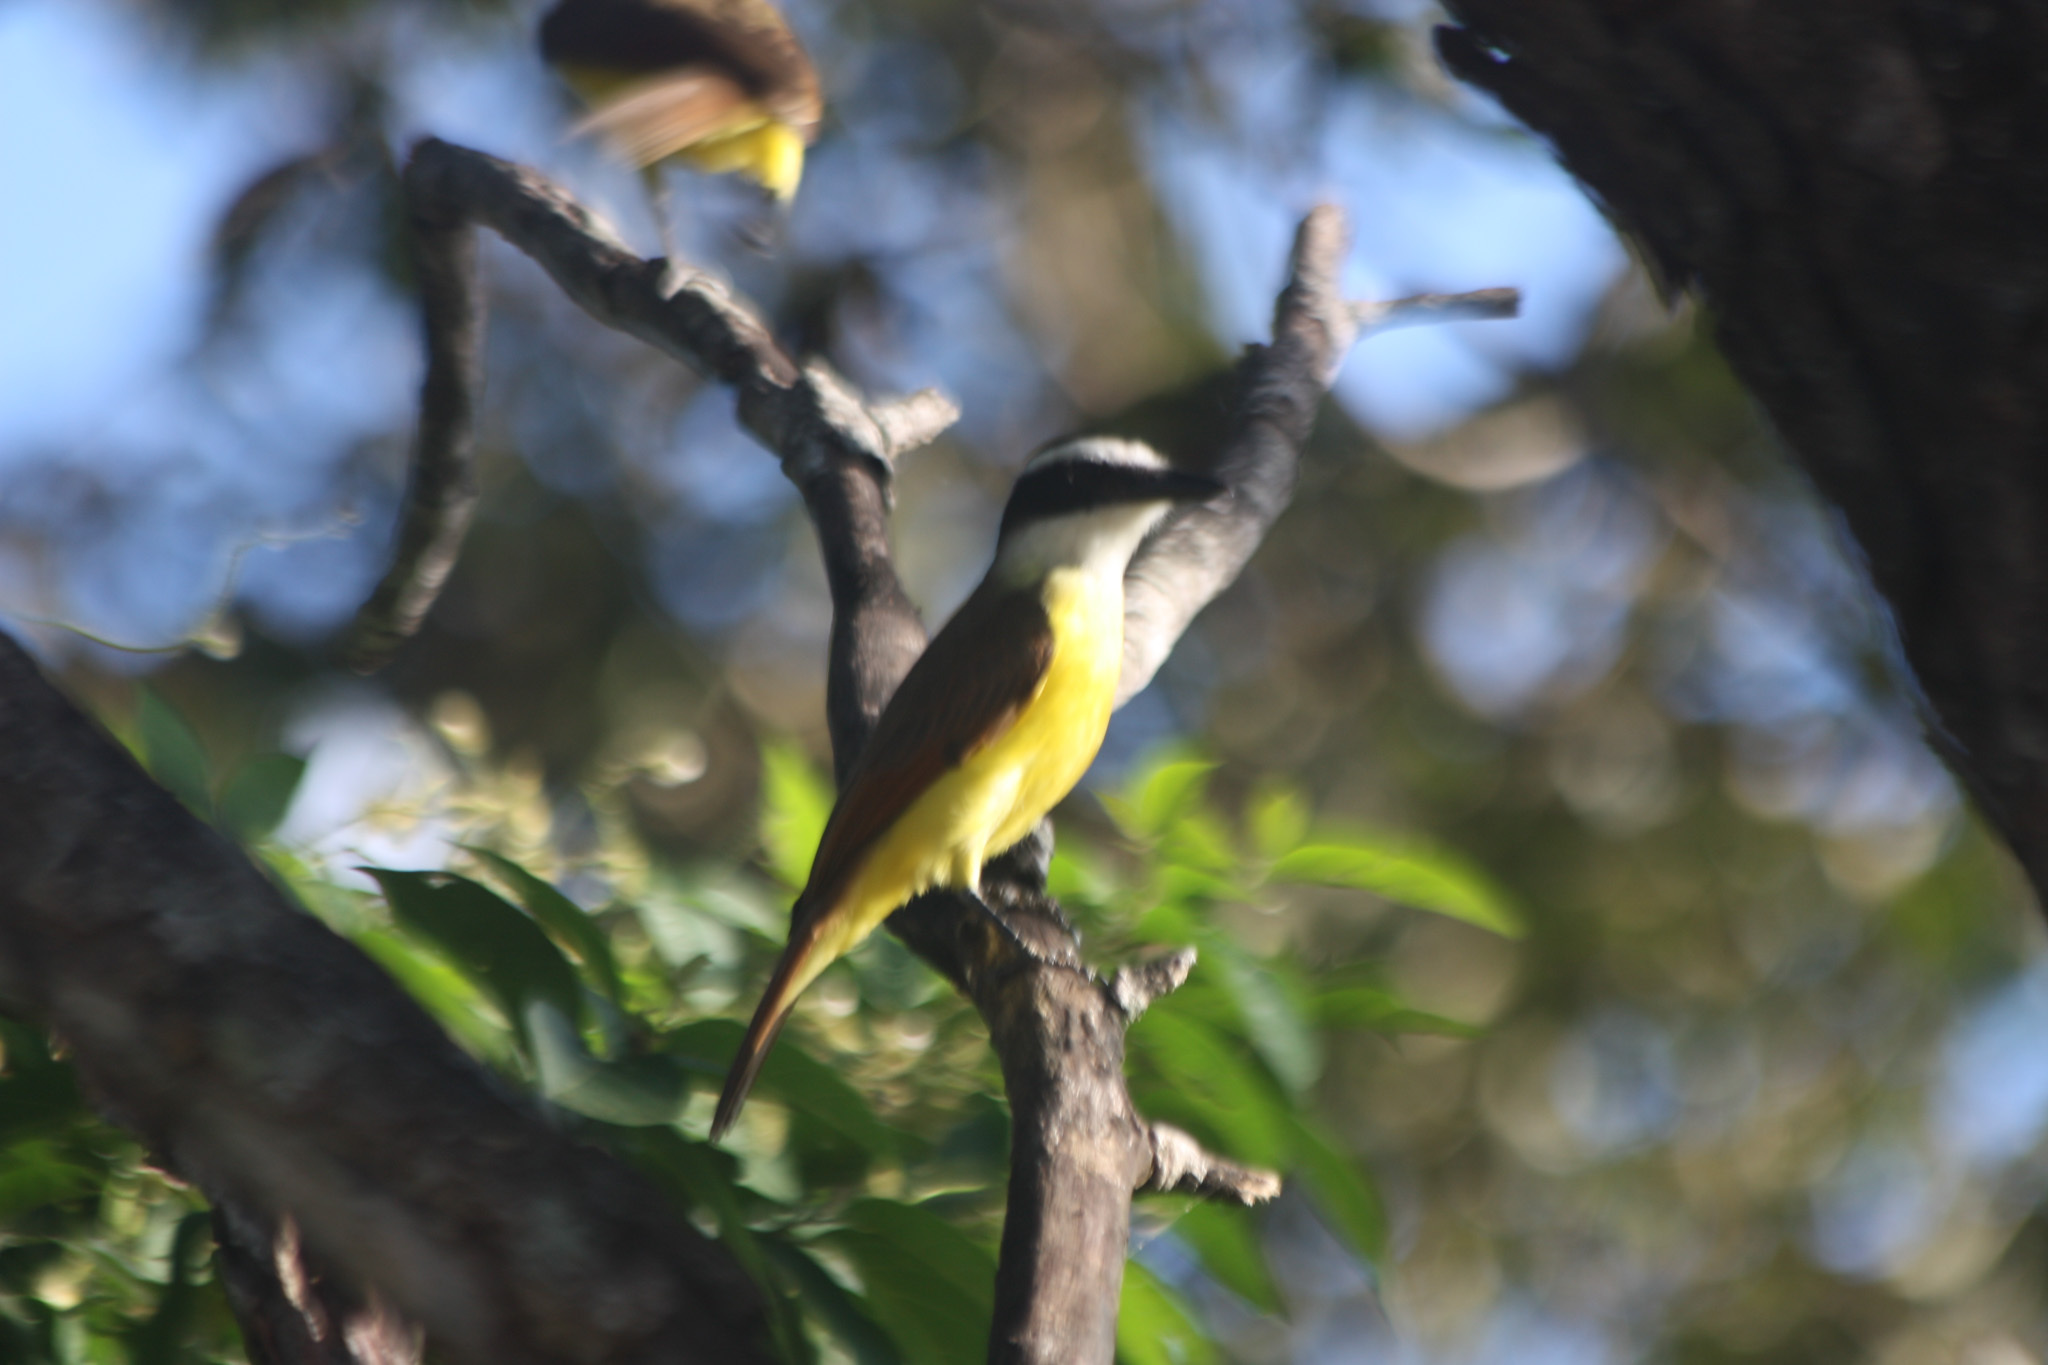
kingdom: Animalia
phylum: Chordata
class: Aves
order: Passeriformes
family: Tyrannidae
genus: Pitangus
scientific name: Pitangus sulphuratus
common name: Great kiskadee
